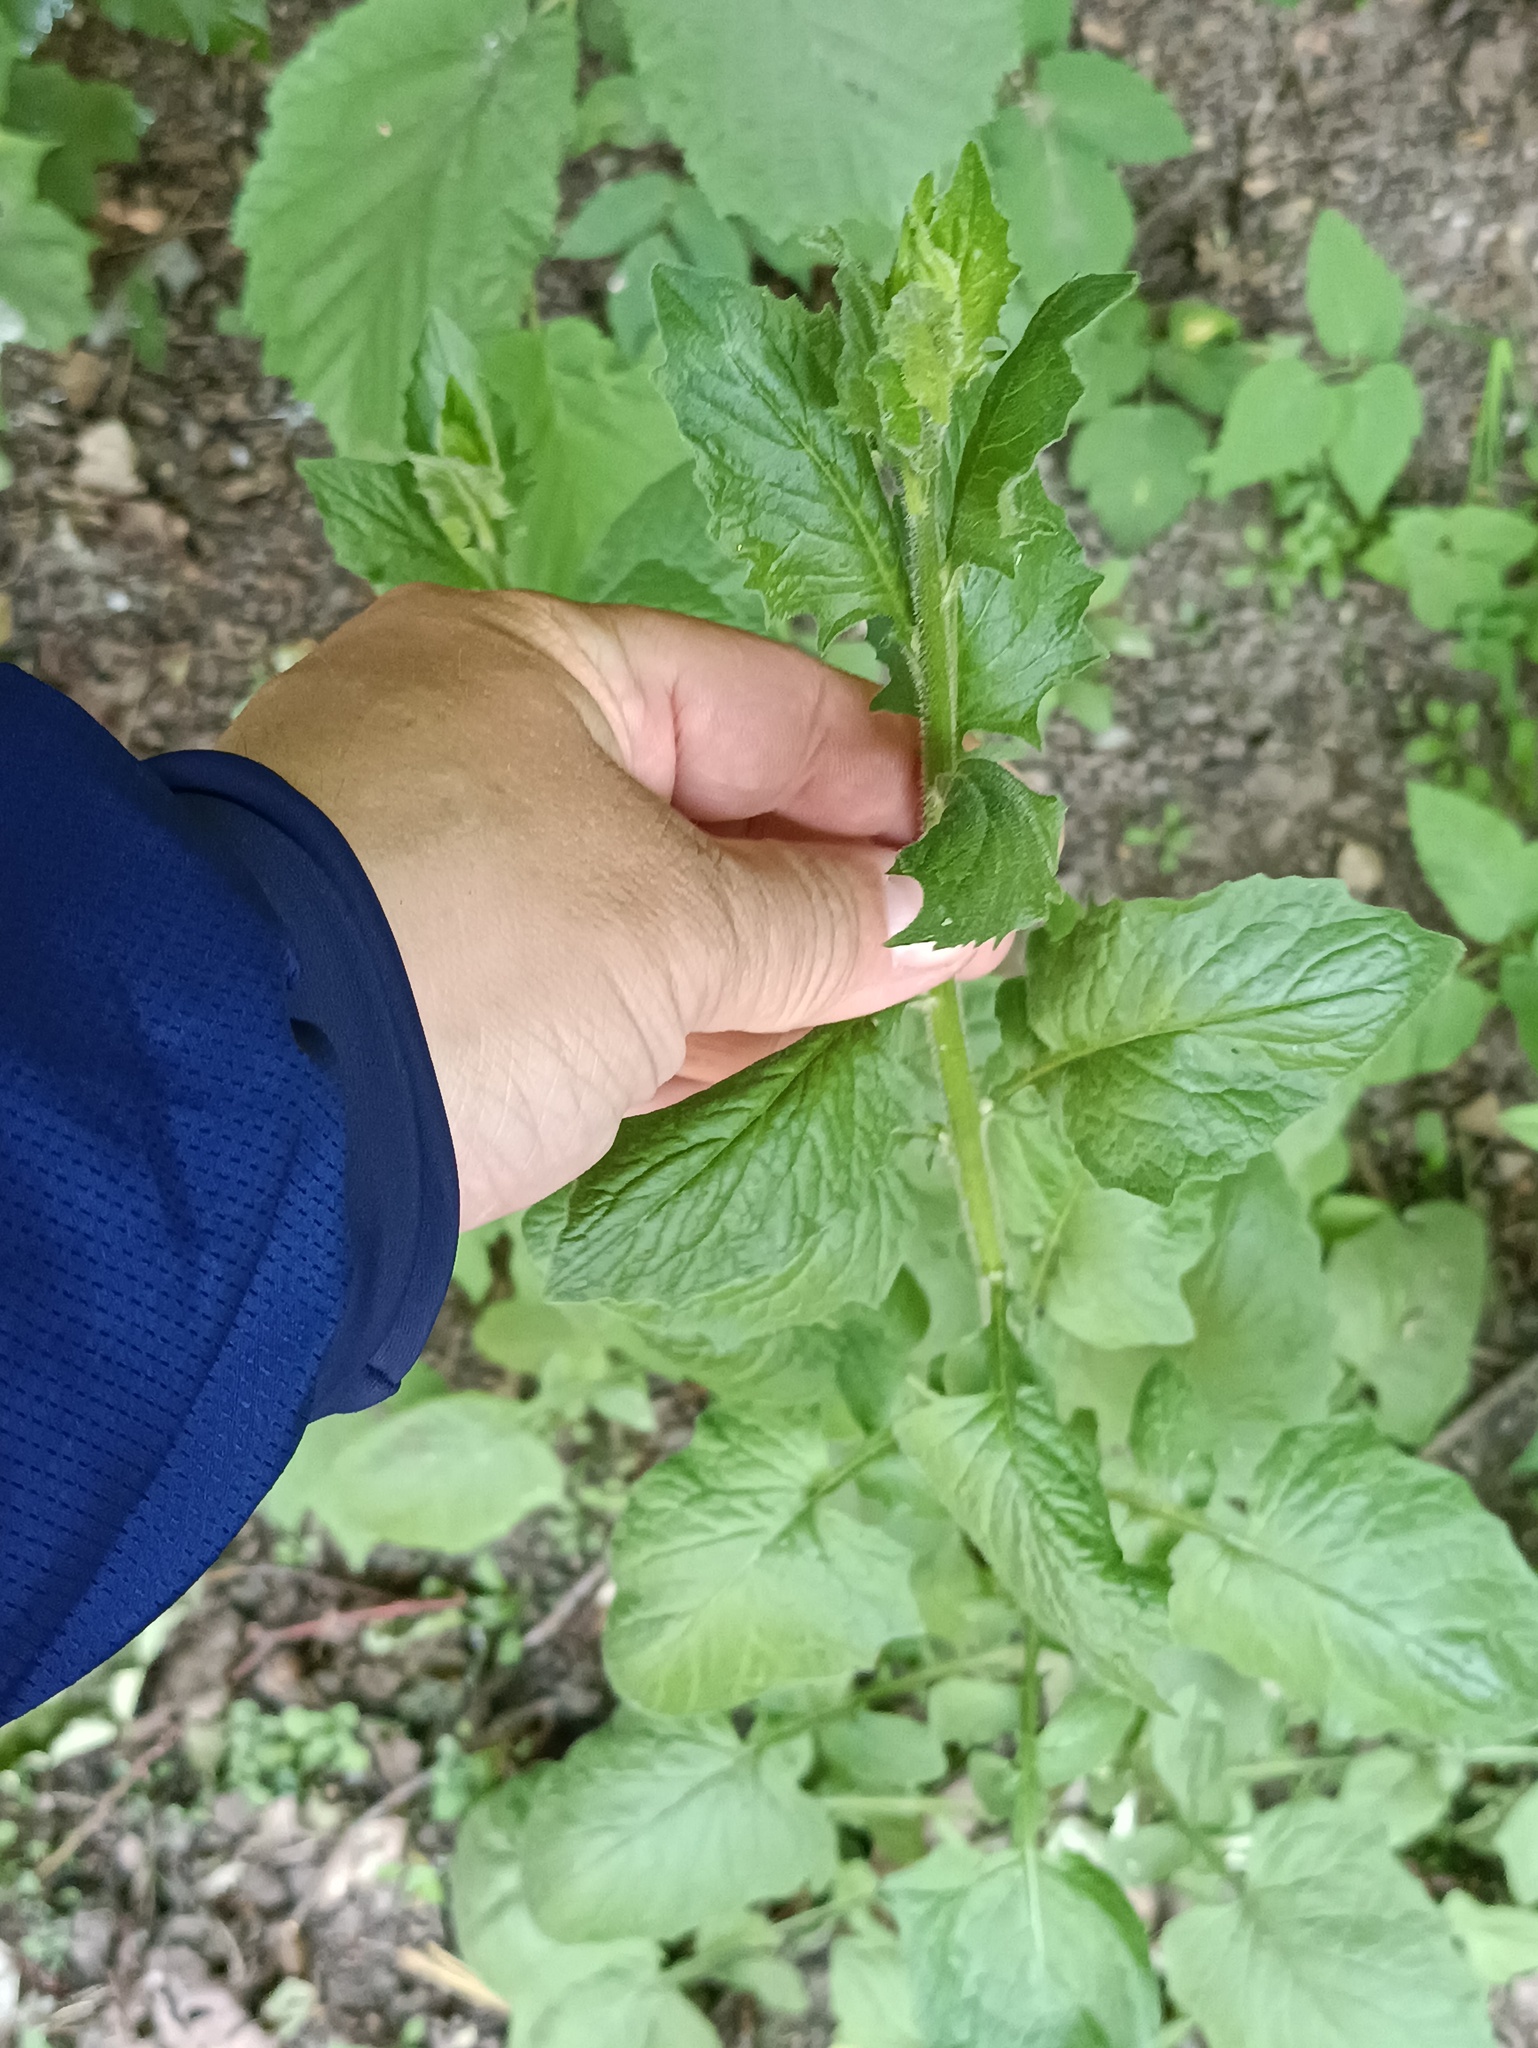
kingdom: Plantae
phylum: Tracheophyta
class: Magnoliopsida
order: Asterales
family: Asteraceae
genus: Lapsana
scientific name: Lapsana communis
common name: Nipplewort
